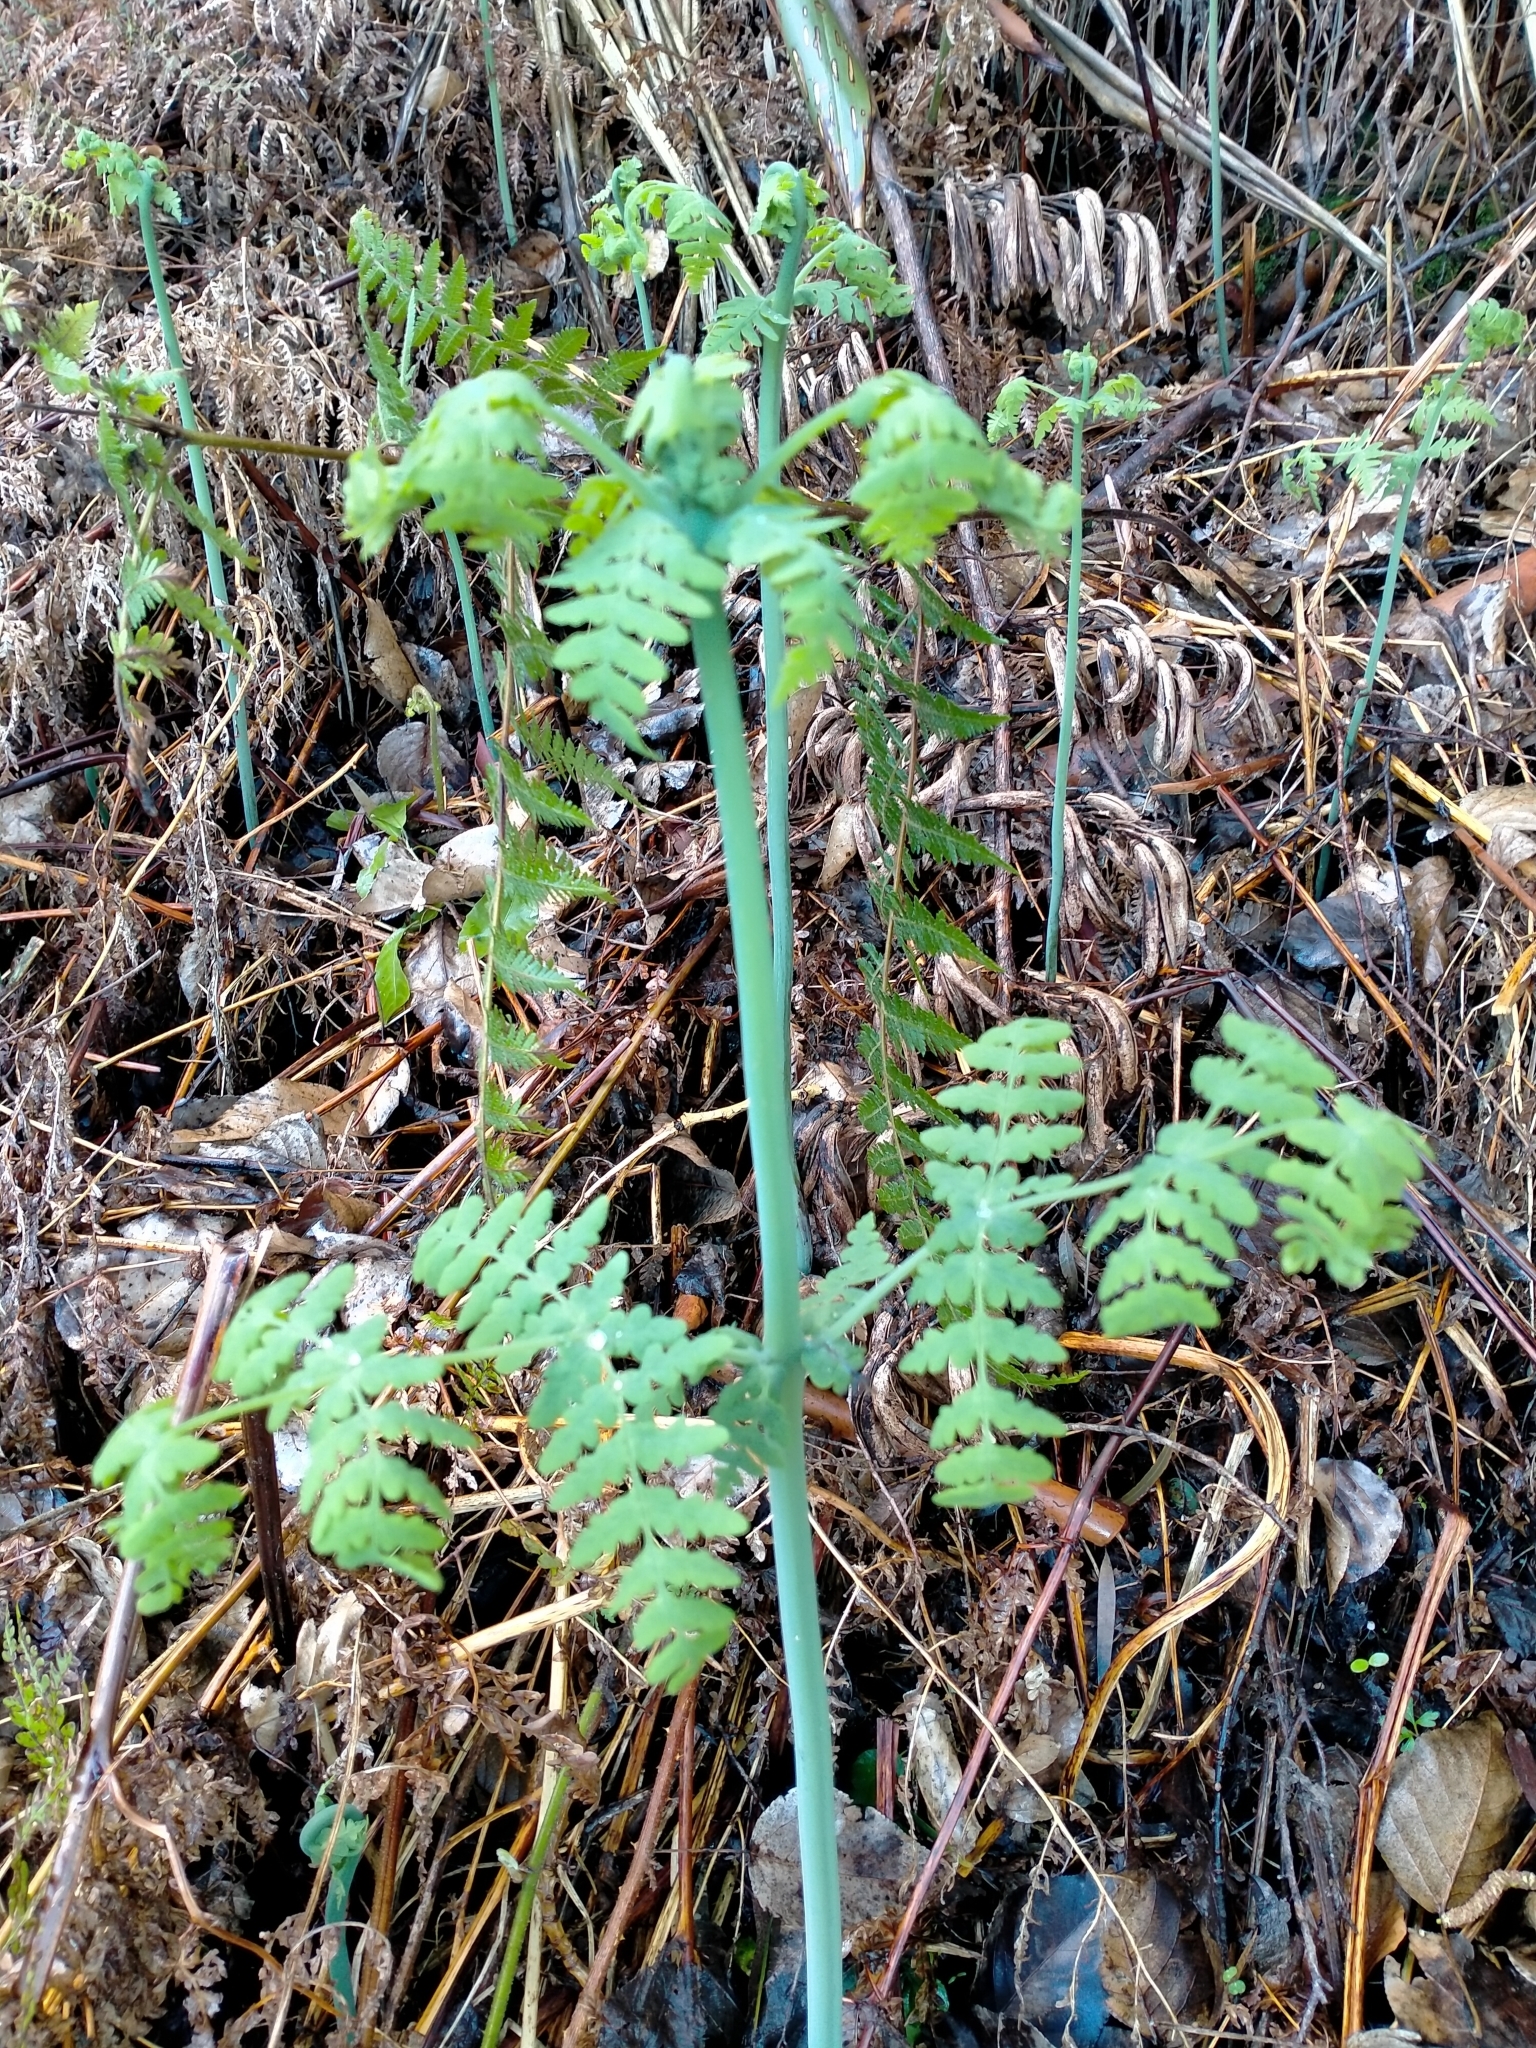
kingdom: Plantae
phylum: Tracheophyta
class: Polypodiopsida
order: Polypodiales
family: Dennstaedtiaceae
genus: Histiopteris
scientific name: Histiopteris incisa
